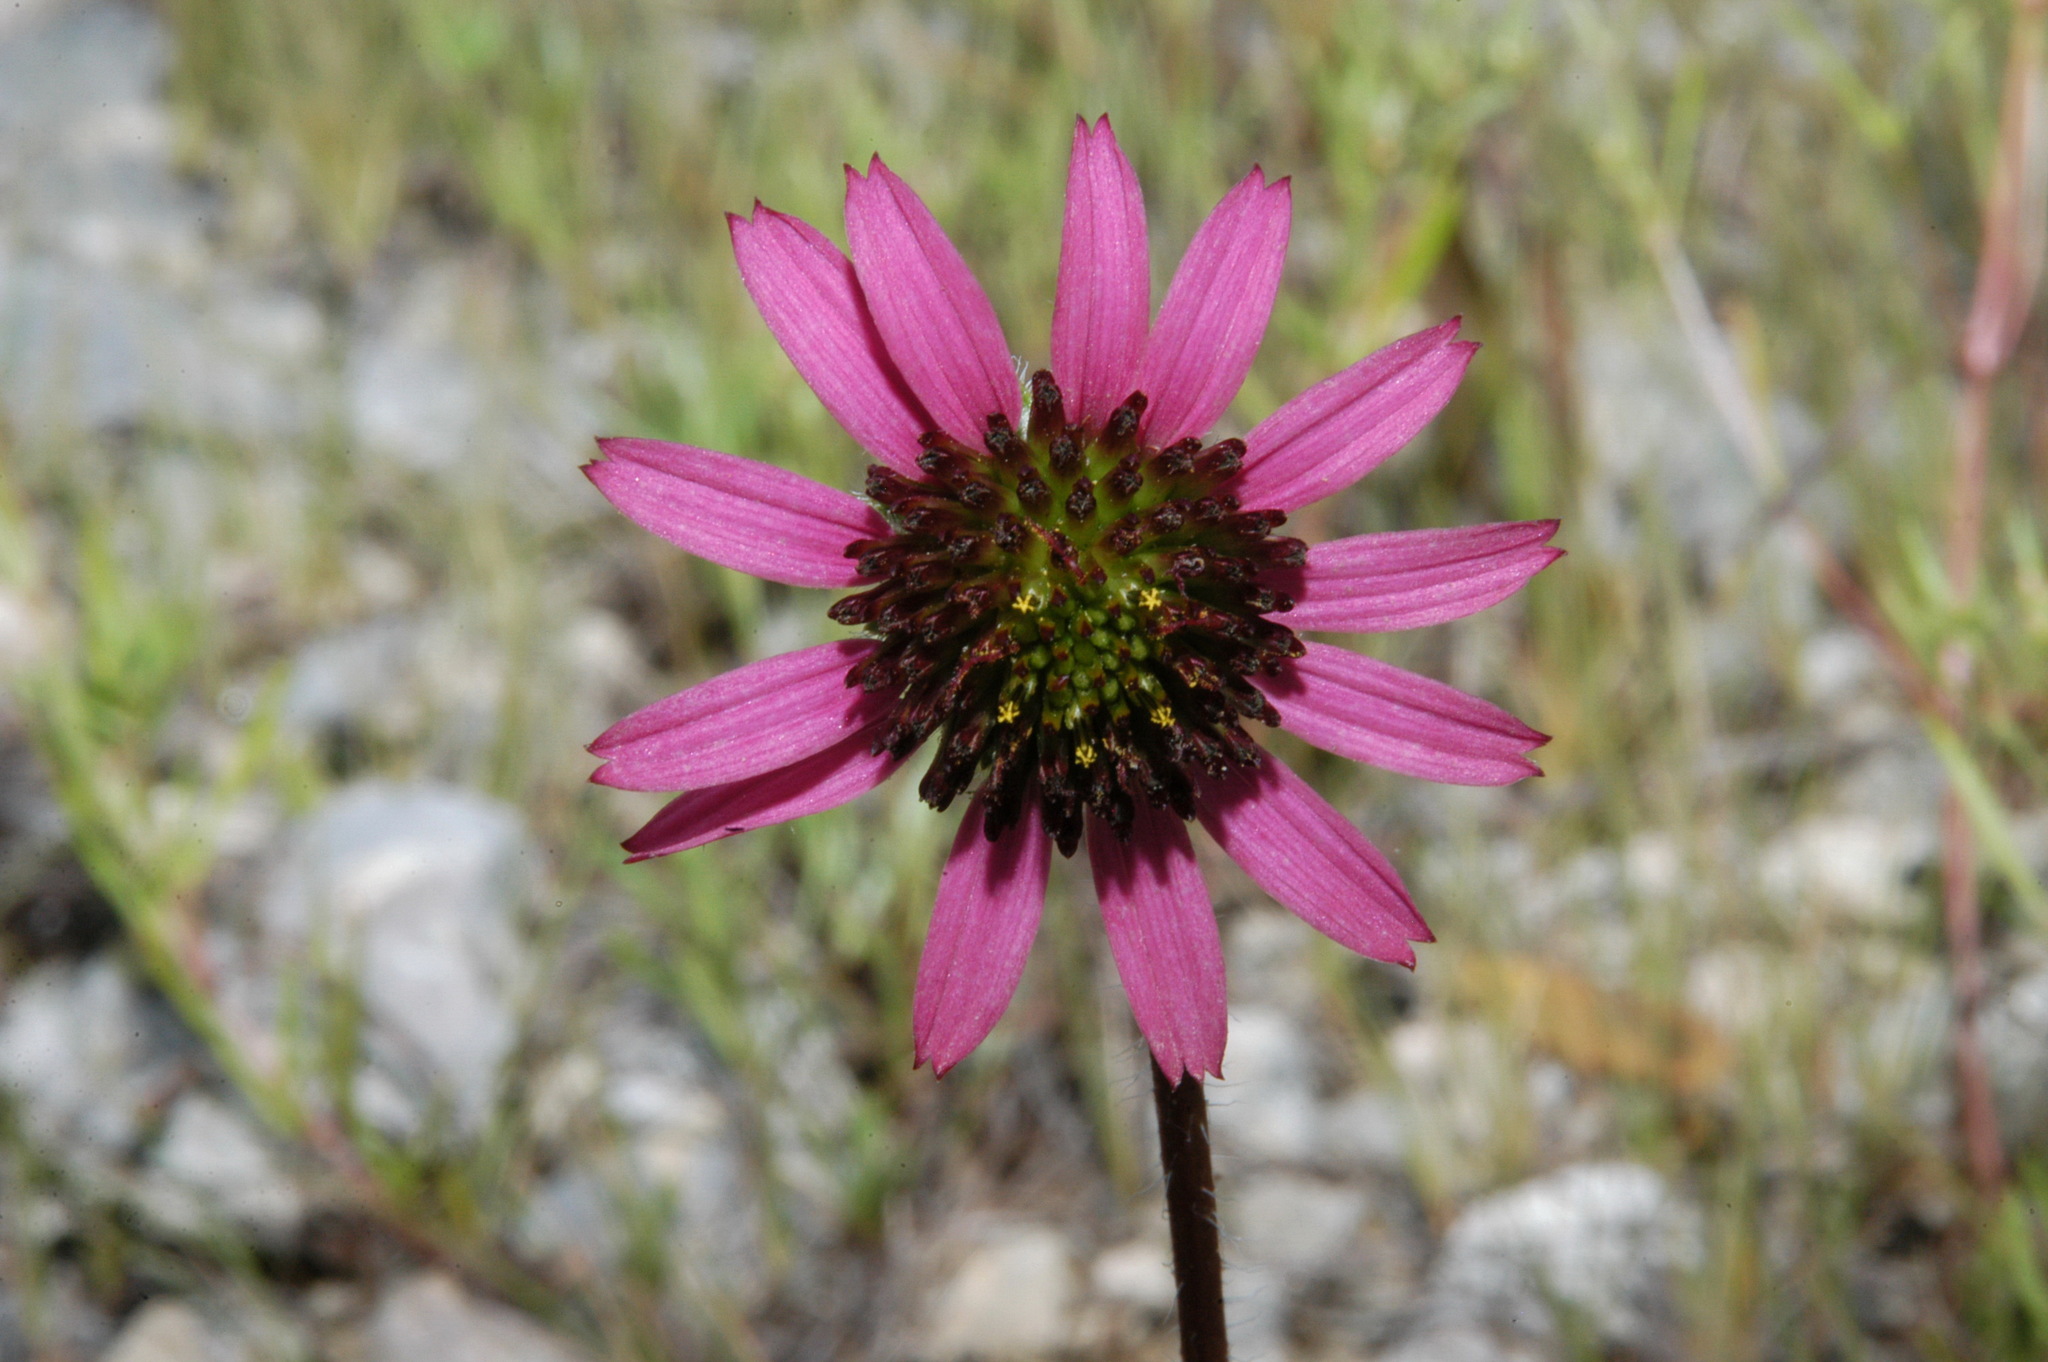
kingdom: Plantae
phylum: Tracheophyta
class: Magnoliopsida
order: Asterales
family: Asteraceae
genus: Echinacea
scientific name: Echinacea tennesseensis
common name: Tennessee purple-coneflower
